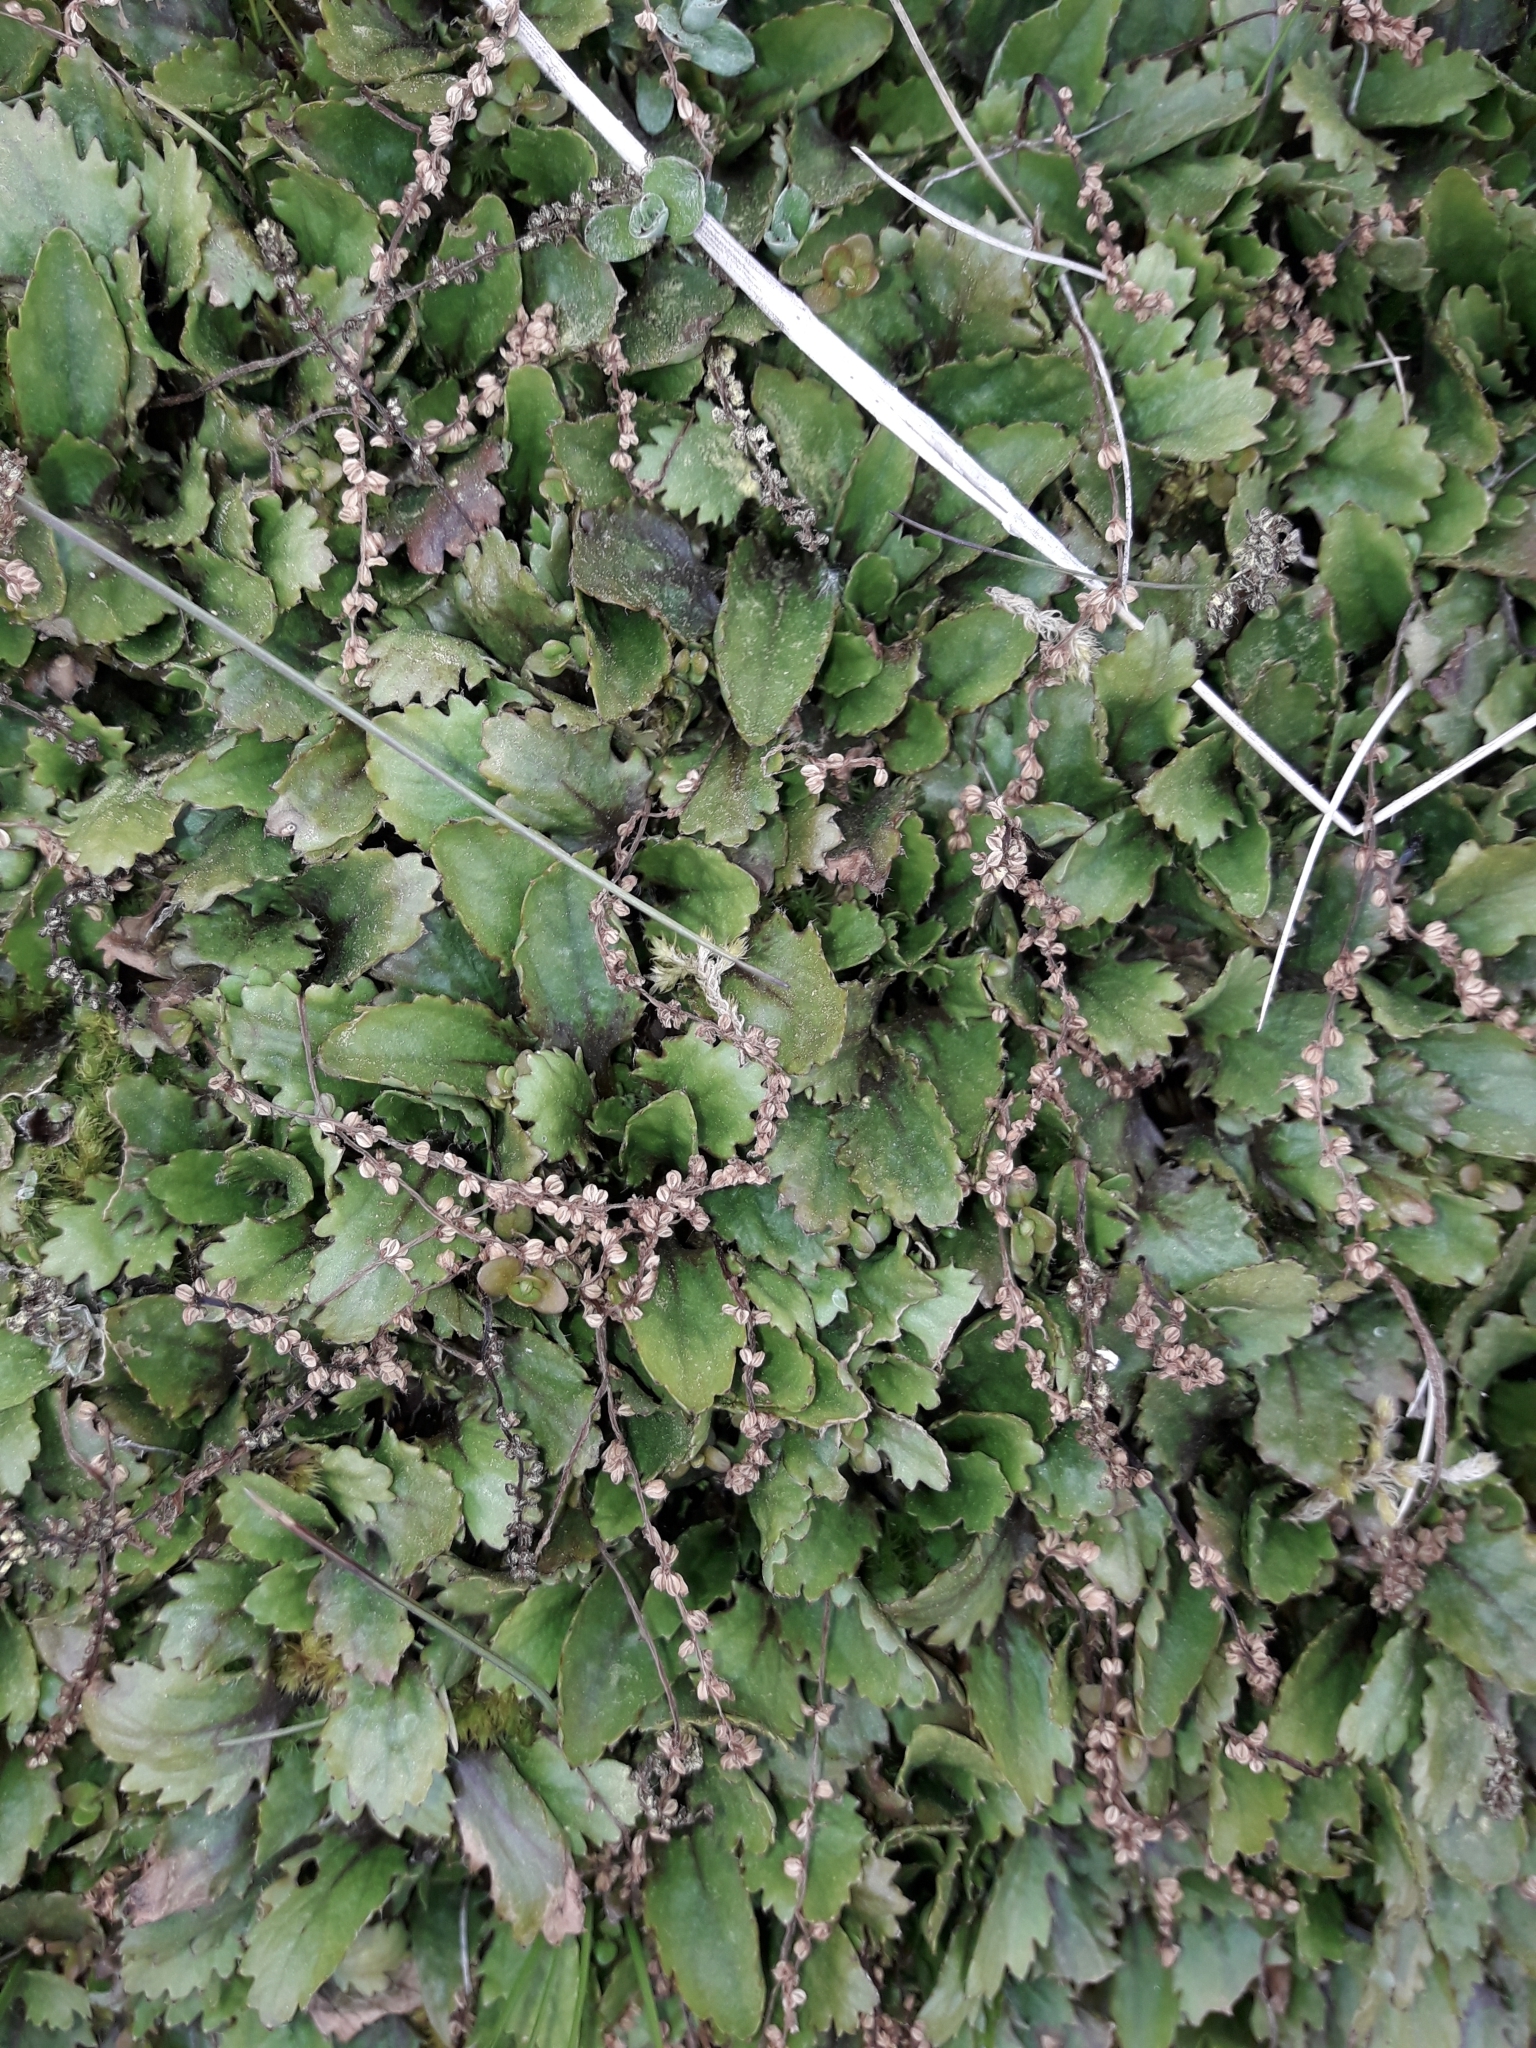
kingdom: Plantae
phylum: Tracheophyta
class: Magnoliopsida
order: Gunnerales
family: Gunneraceae
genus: Gunnera
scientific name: Gunnera dentata
